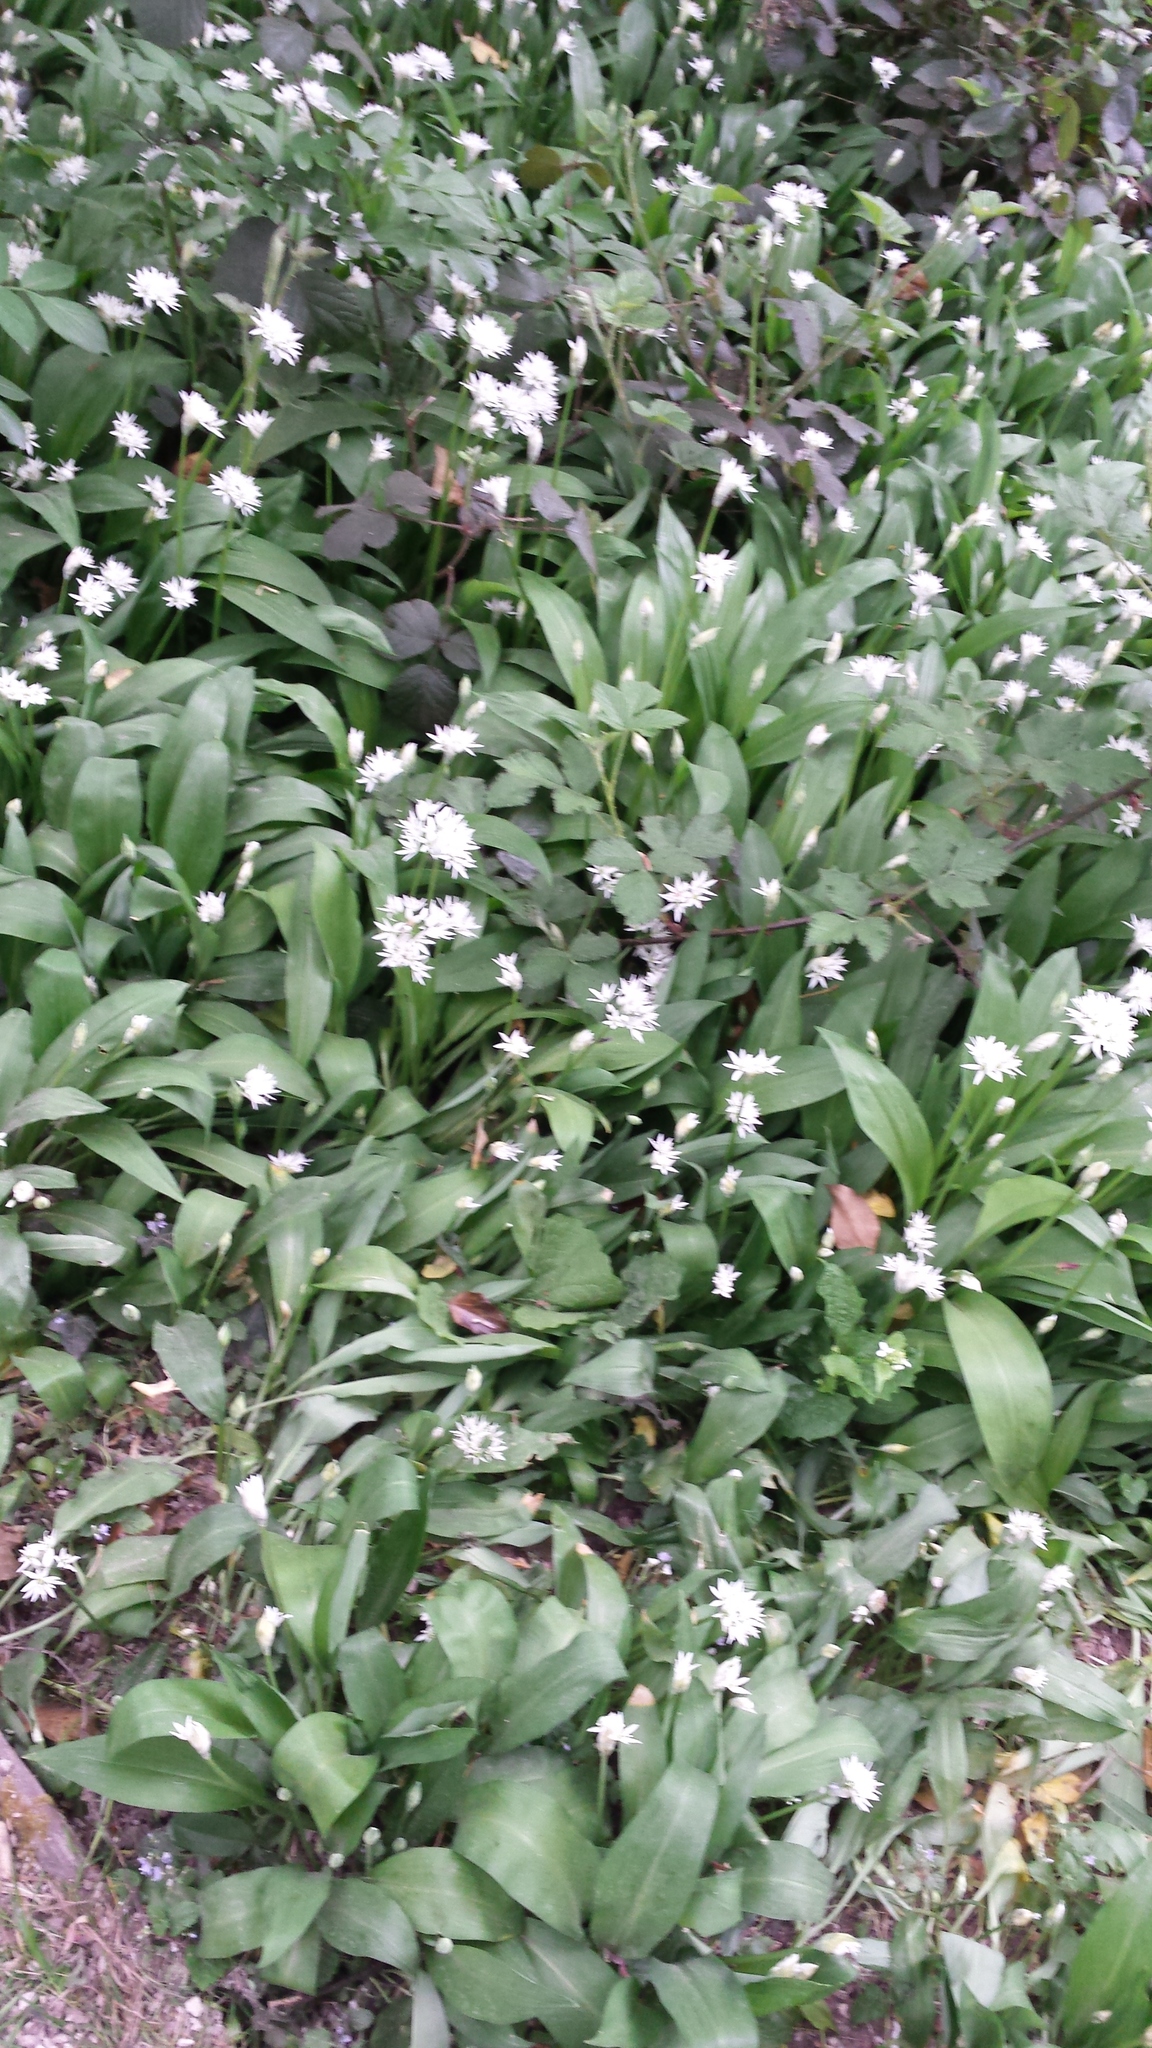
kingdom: Plantae
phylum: Tracheophyta
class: Liliopsida
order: Asparagales
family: Amaryllidaceae
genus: Allium
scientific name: Allium ursinum
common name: Ramsons
